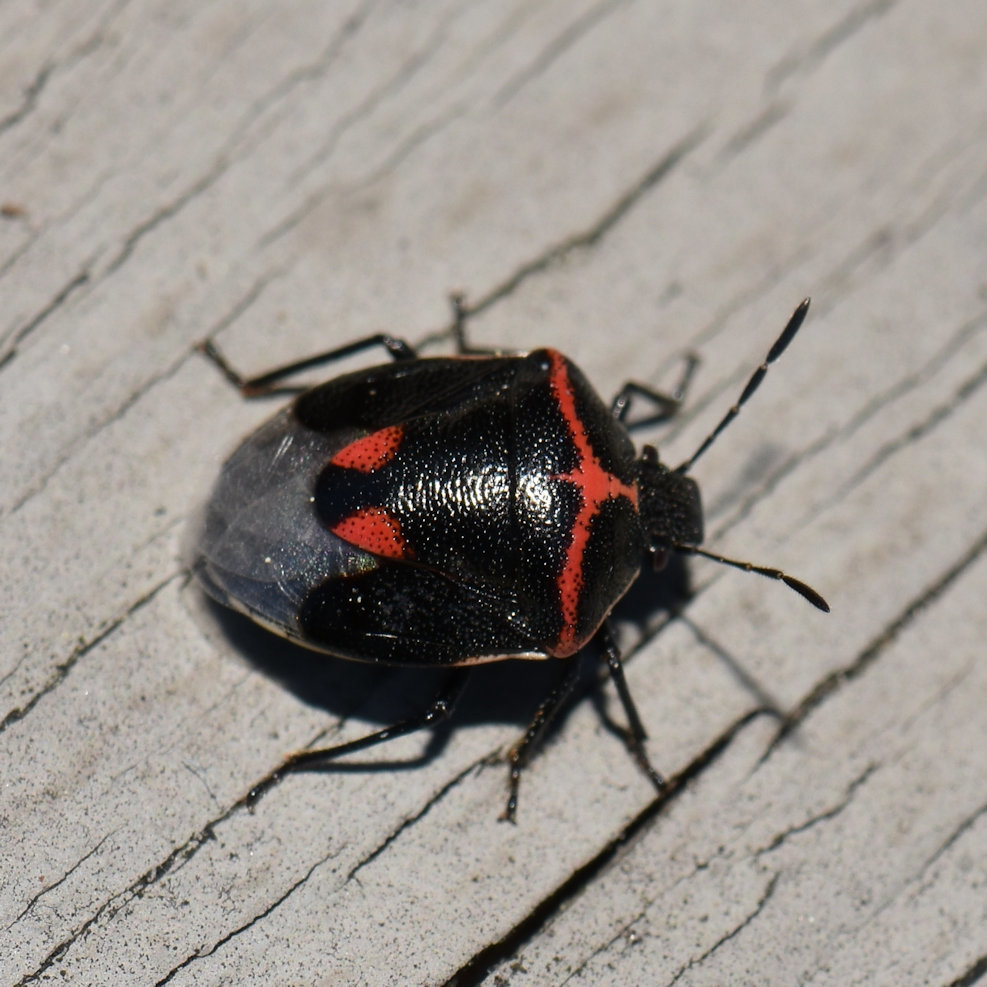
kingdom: Animalia
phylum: Arthropoda
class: Insecta
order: Hemiptera
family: Pentatomidae
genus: Cosmopepla
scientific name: Cosmopepla lintneriana
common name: Twice-stabbed stink bug
